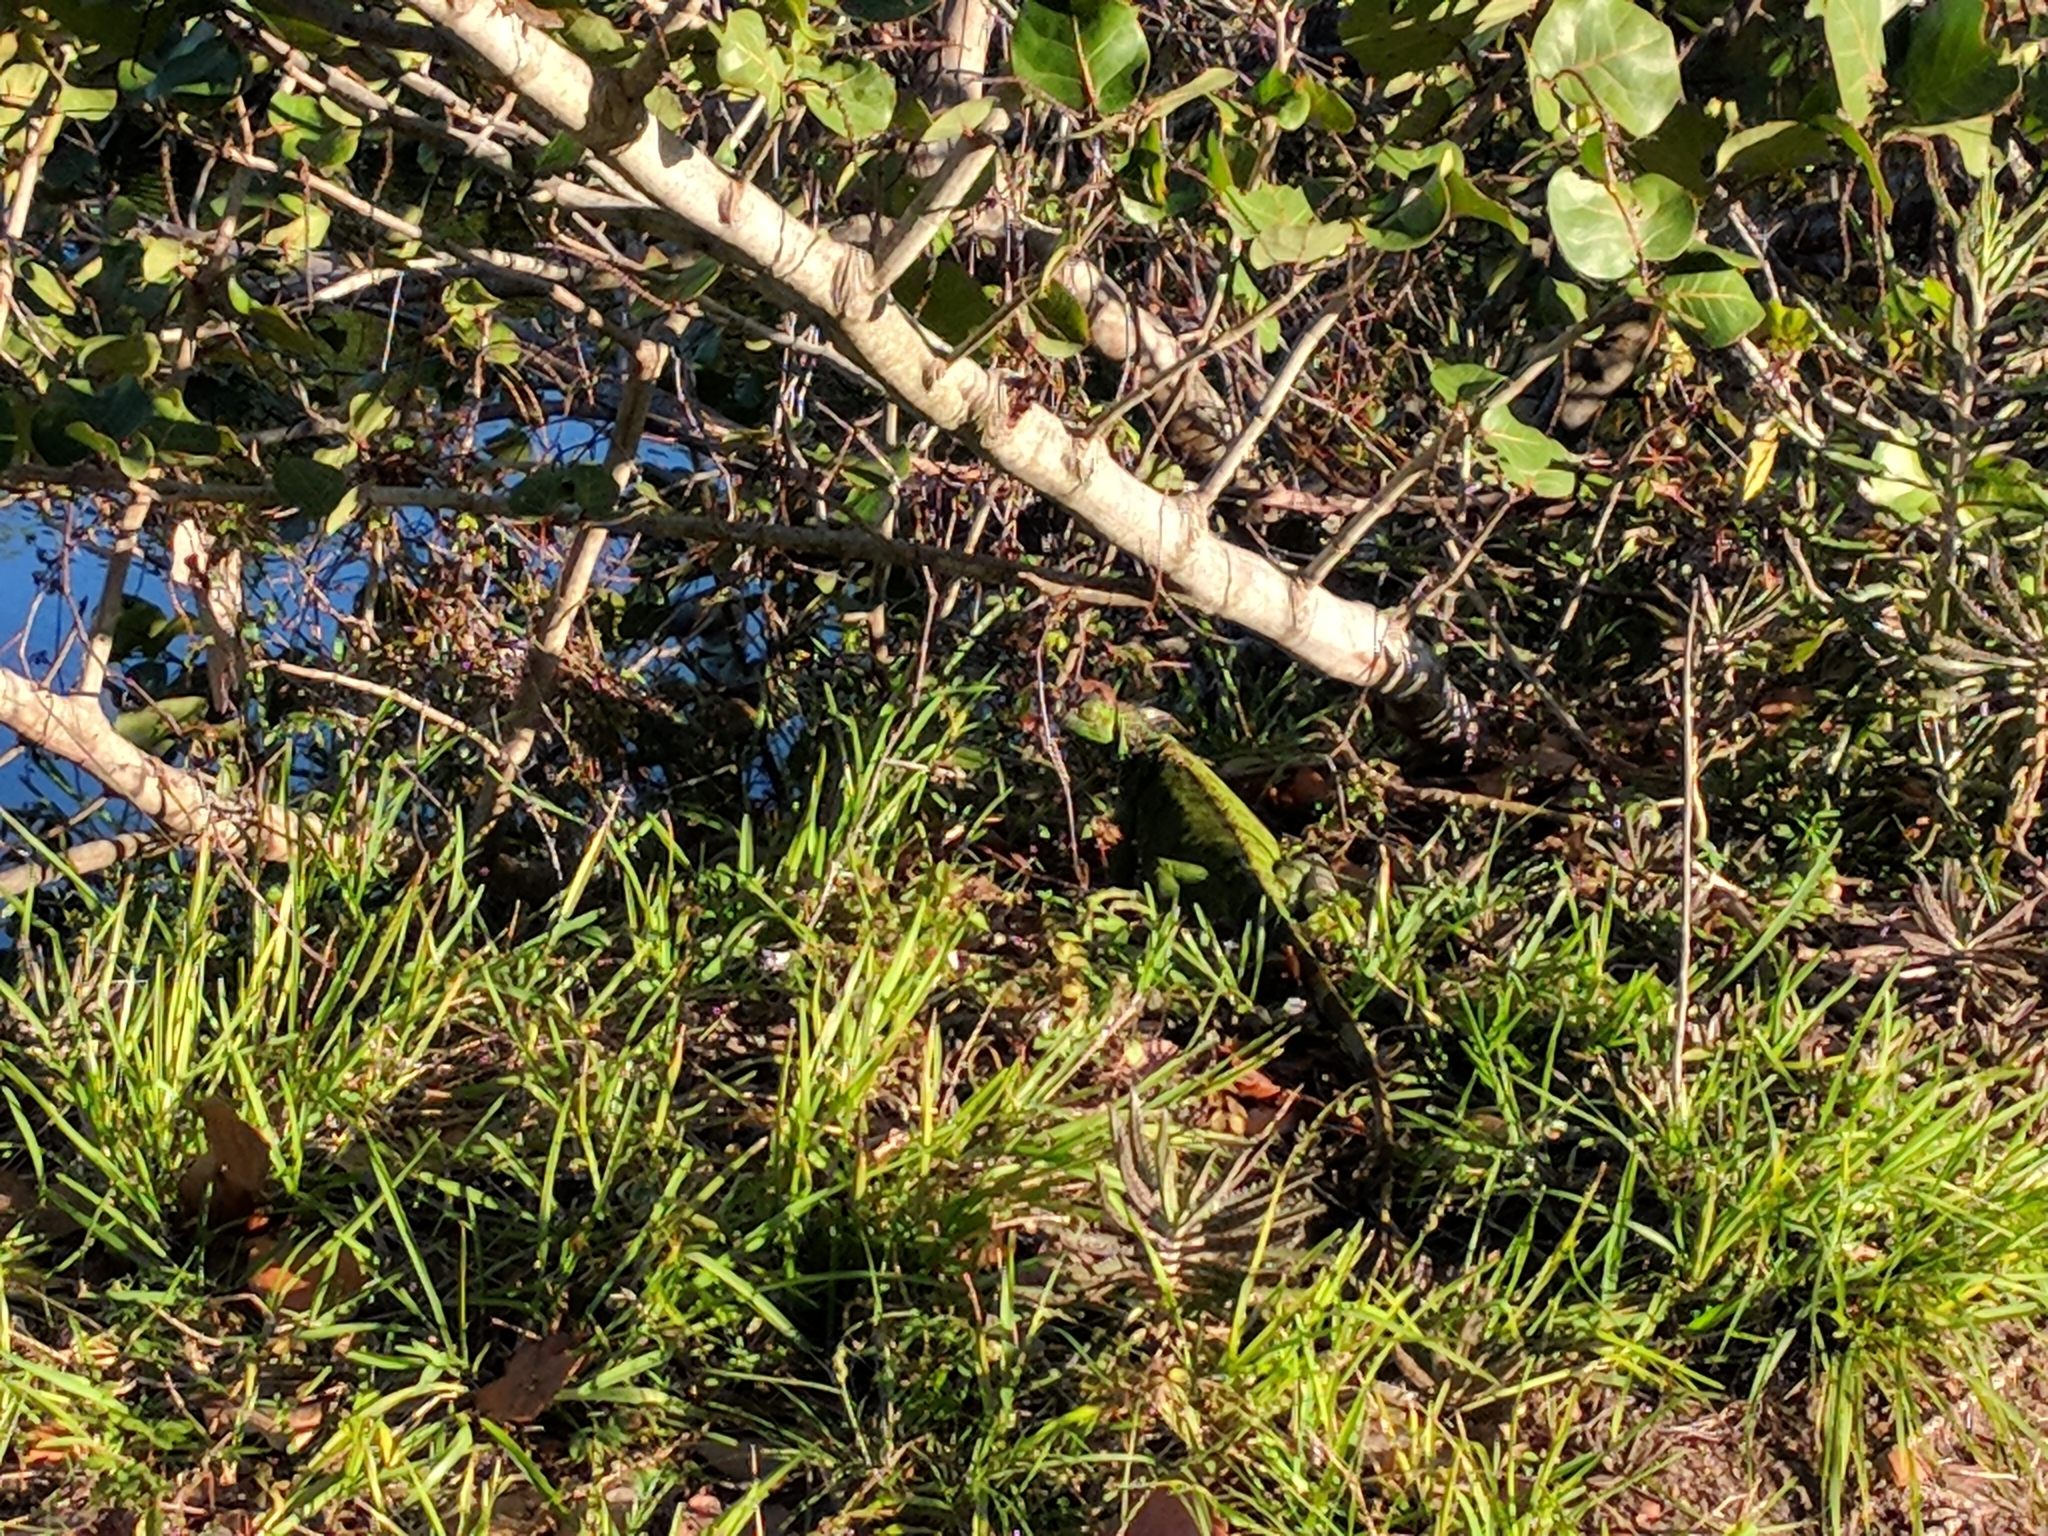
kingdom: Animalia
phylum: Chordata
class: Squamata
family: Iguanidae
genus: Iguana
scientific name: Iguana iguana
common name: Green iguana
